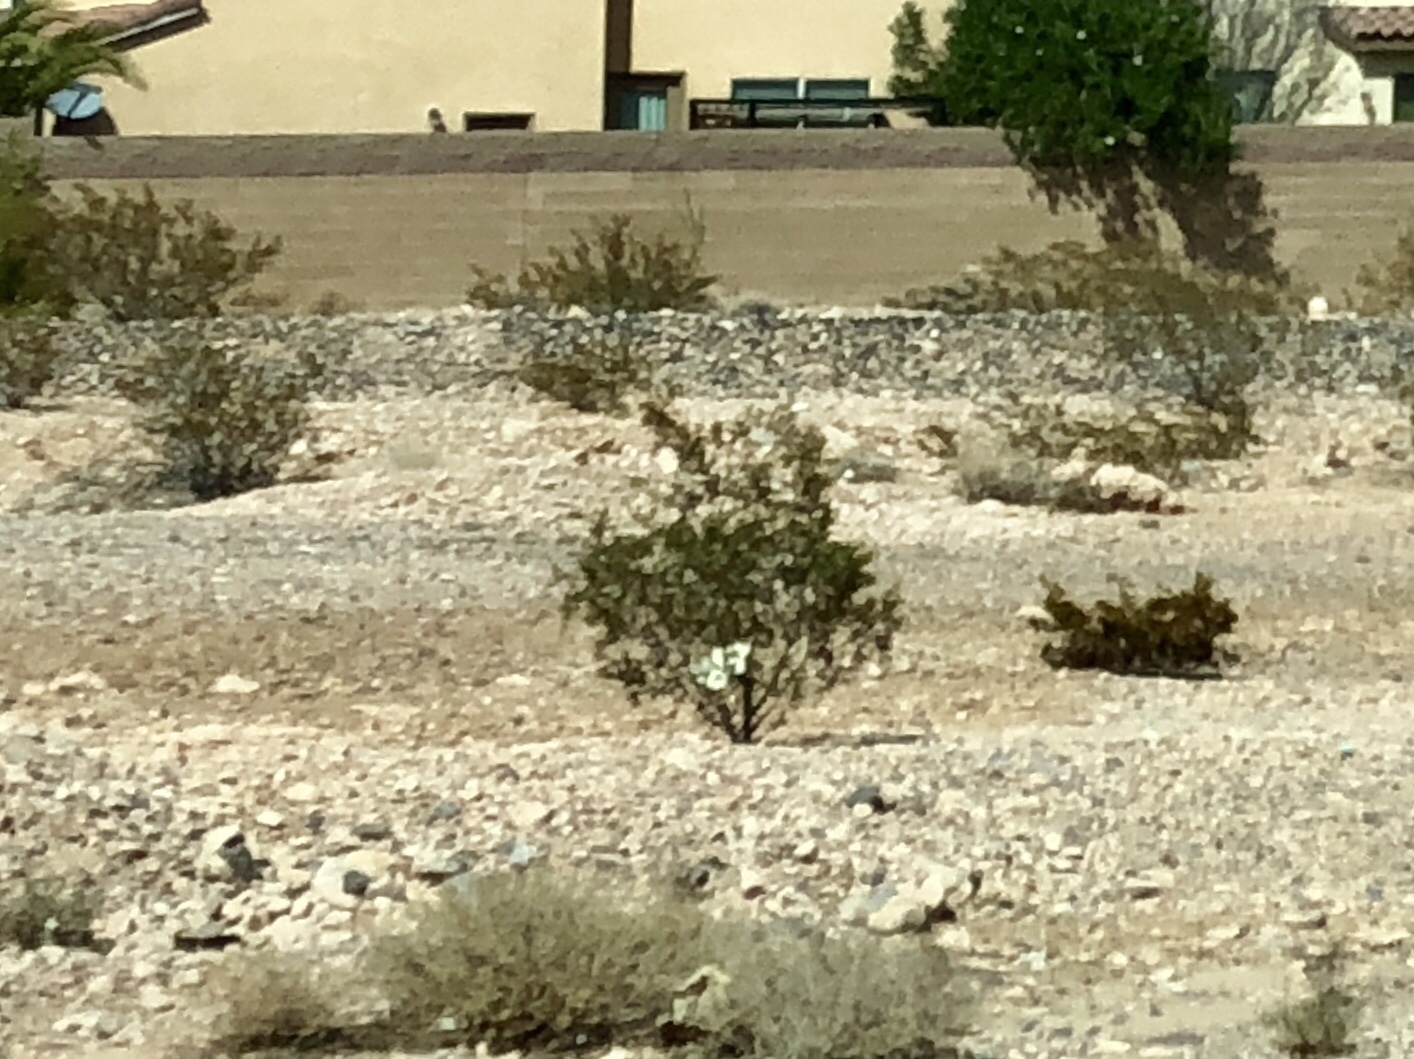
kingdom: Plantae
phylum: Tracheophyta
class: Magnoliopsida
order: Zygophyllales
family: Zygophyllaceae
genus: Larrea
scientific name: Larrea tridentata
